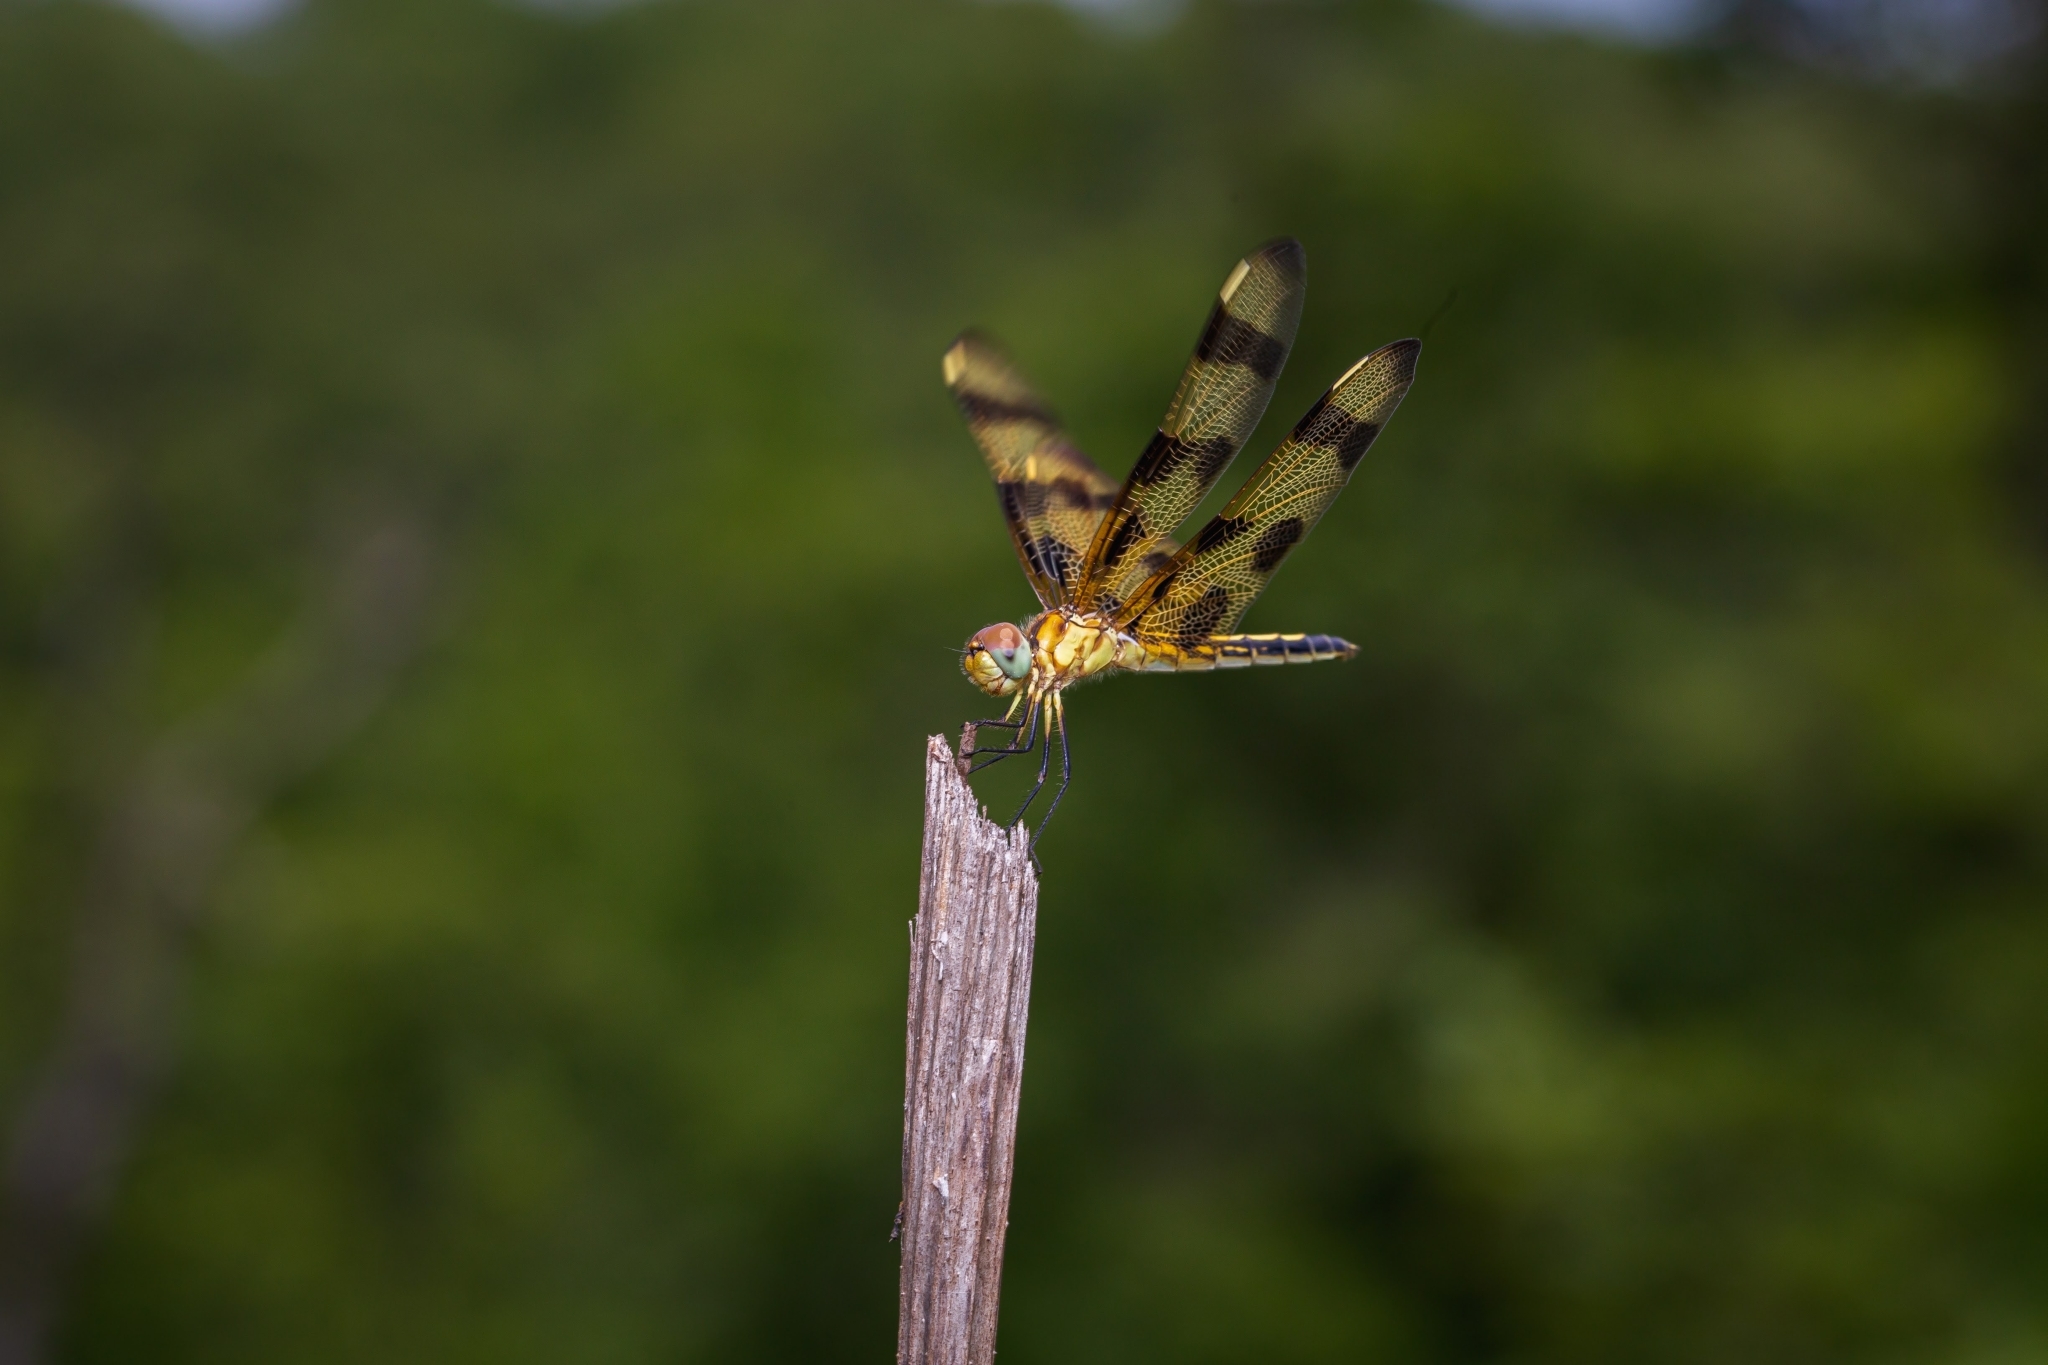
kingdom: Animalia
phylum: Arthropoda
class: Insecta
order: Odonata
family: Libellulidae
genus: Celithemis
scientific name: Celithemis eponina
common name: Halloween pennant
